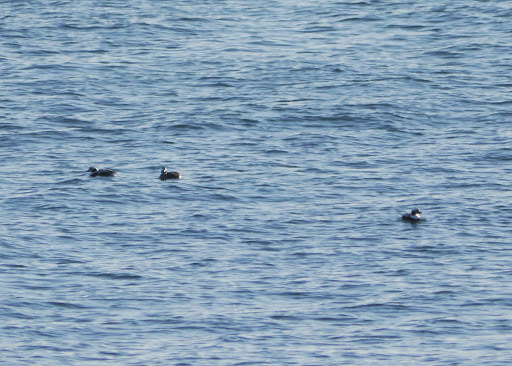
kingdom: Animalia
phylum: Chordata
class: Aves
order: Anseriformes
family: Anatidae
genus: Clangula
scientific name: Clangula hyemalis
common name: Long-tailed duck
